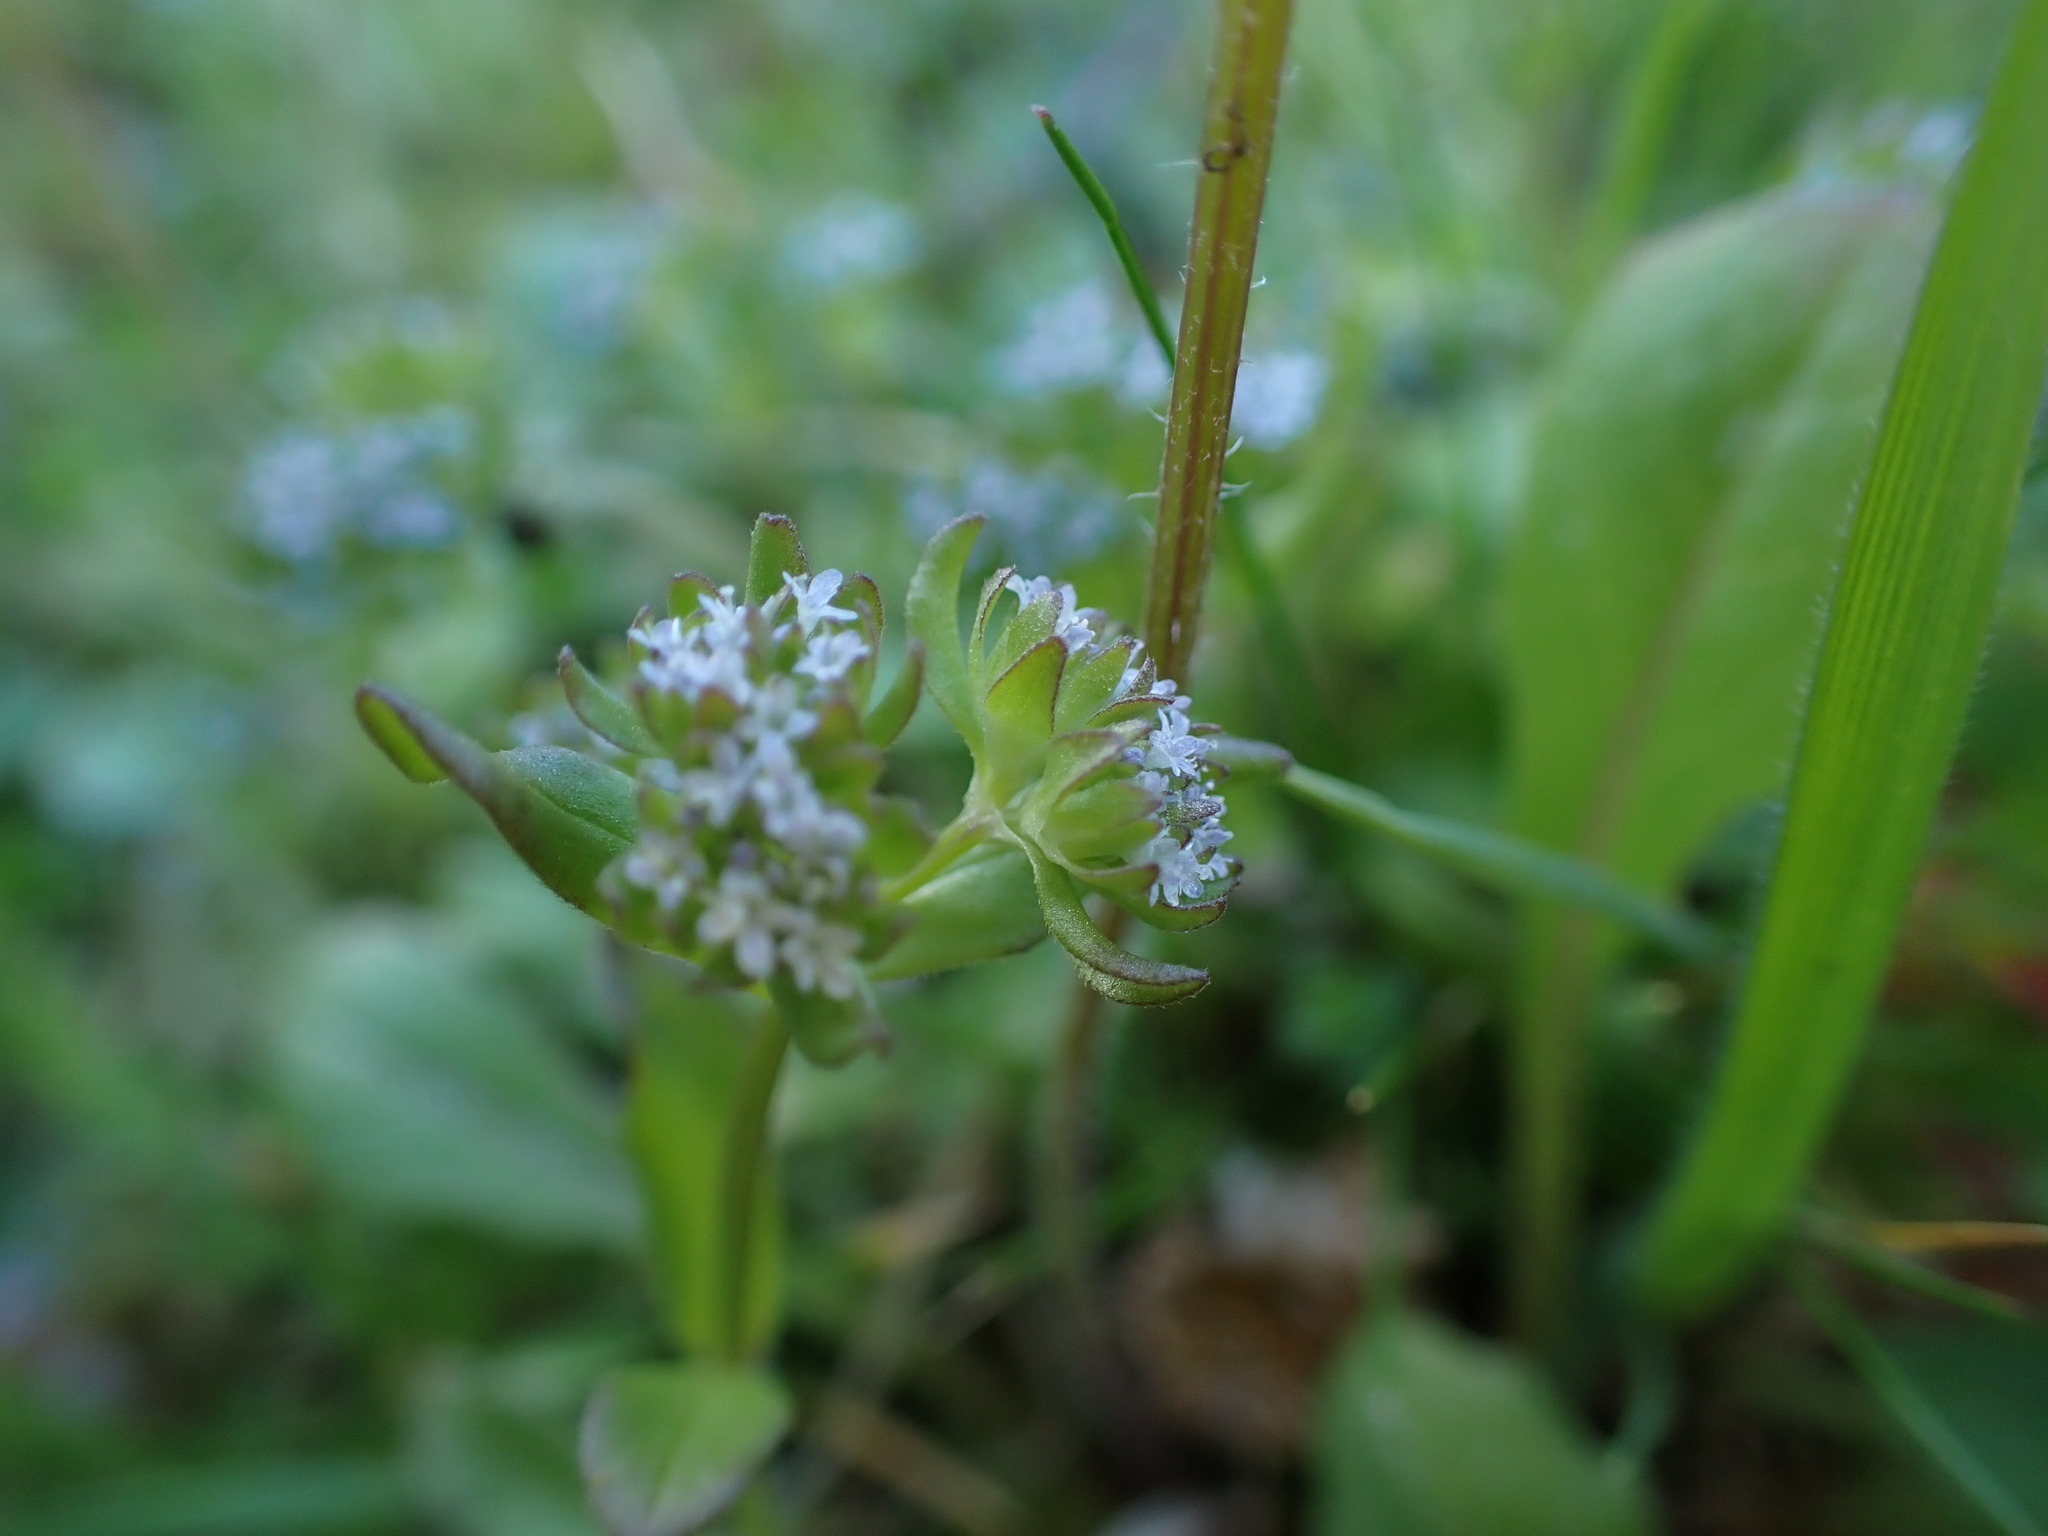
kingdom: Plantae
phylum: Tracheophyta
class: Magnoliopsida
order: Dipsacales
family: Caprifoliaceae
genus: Valerianella
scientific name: Valerianella locusta
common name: Common cornsalad
